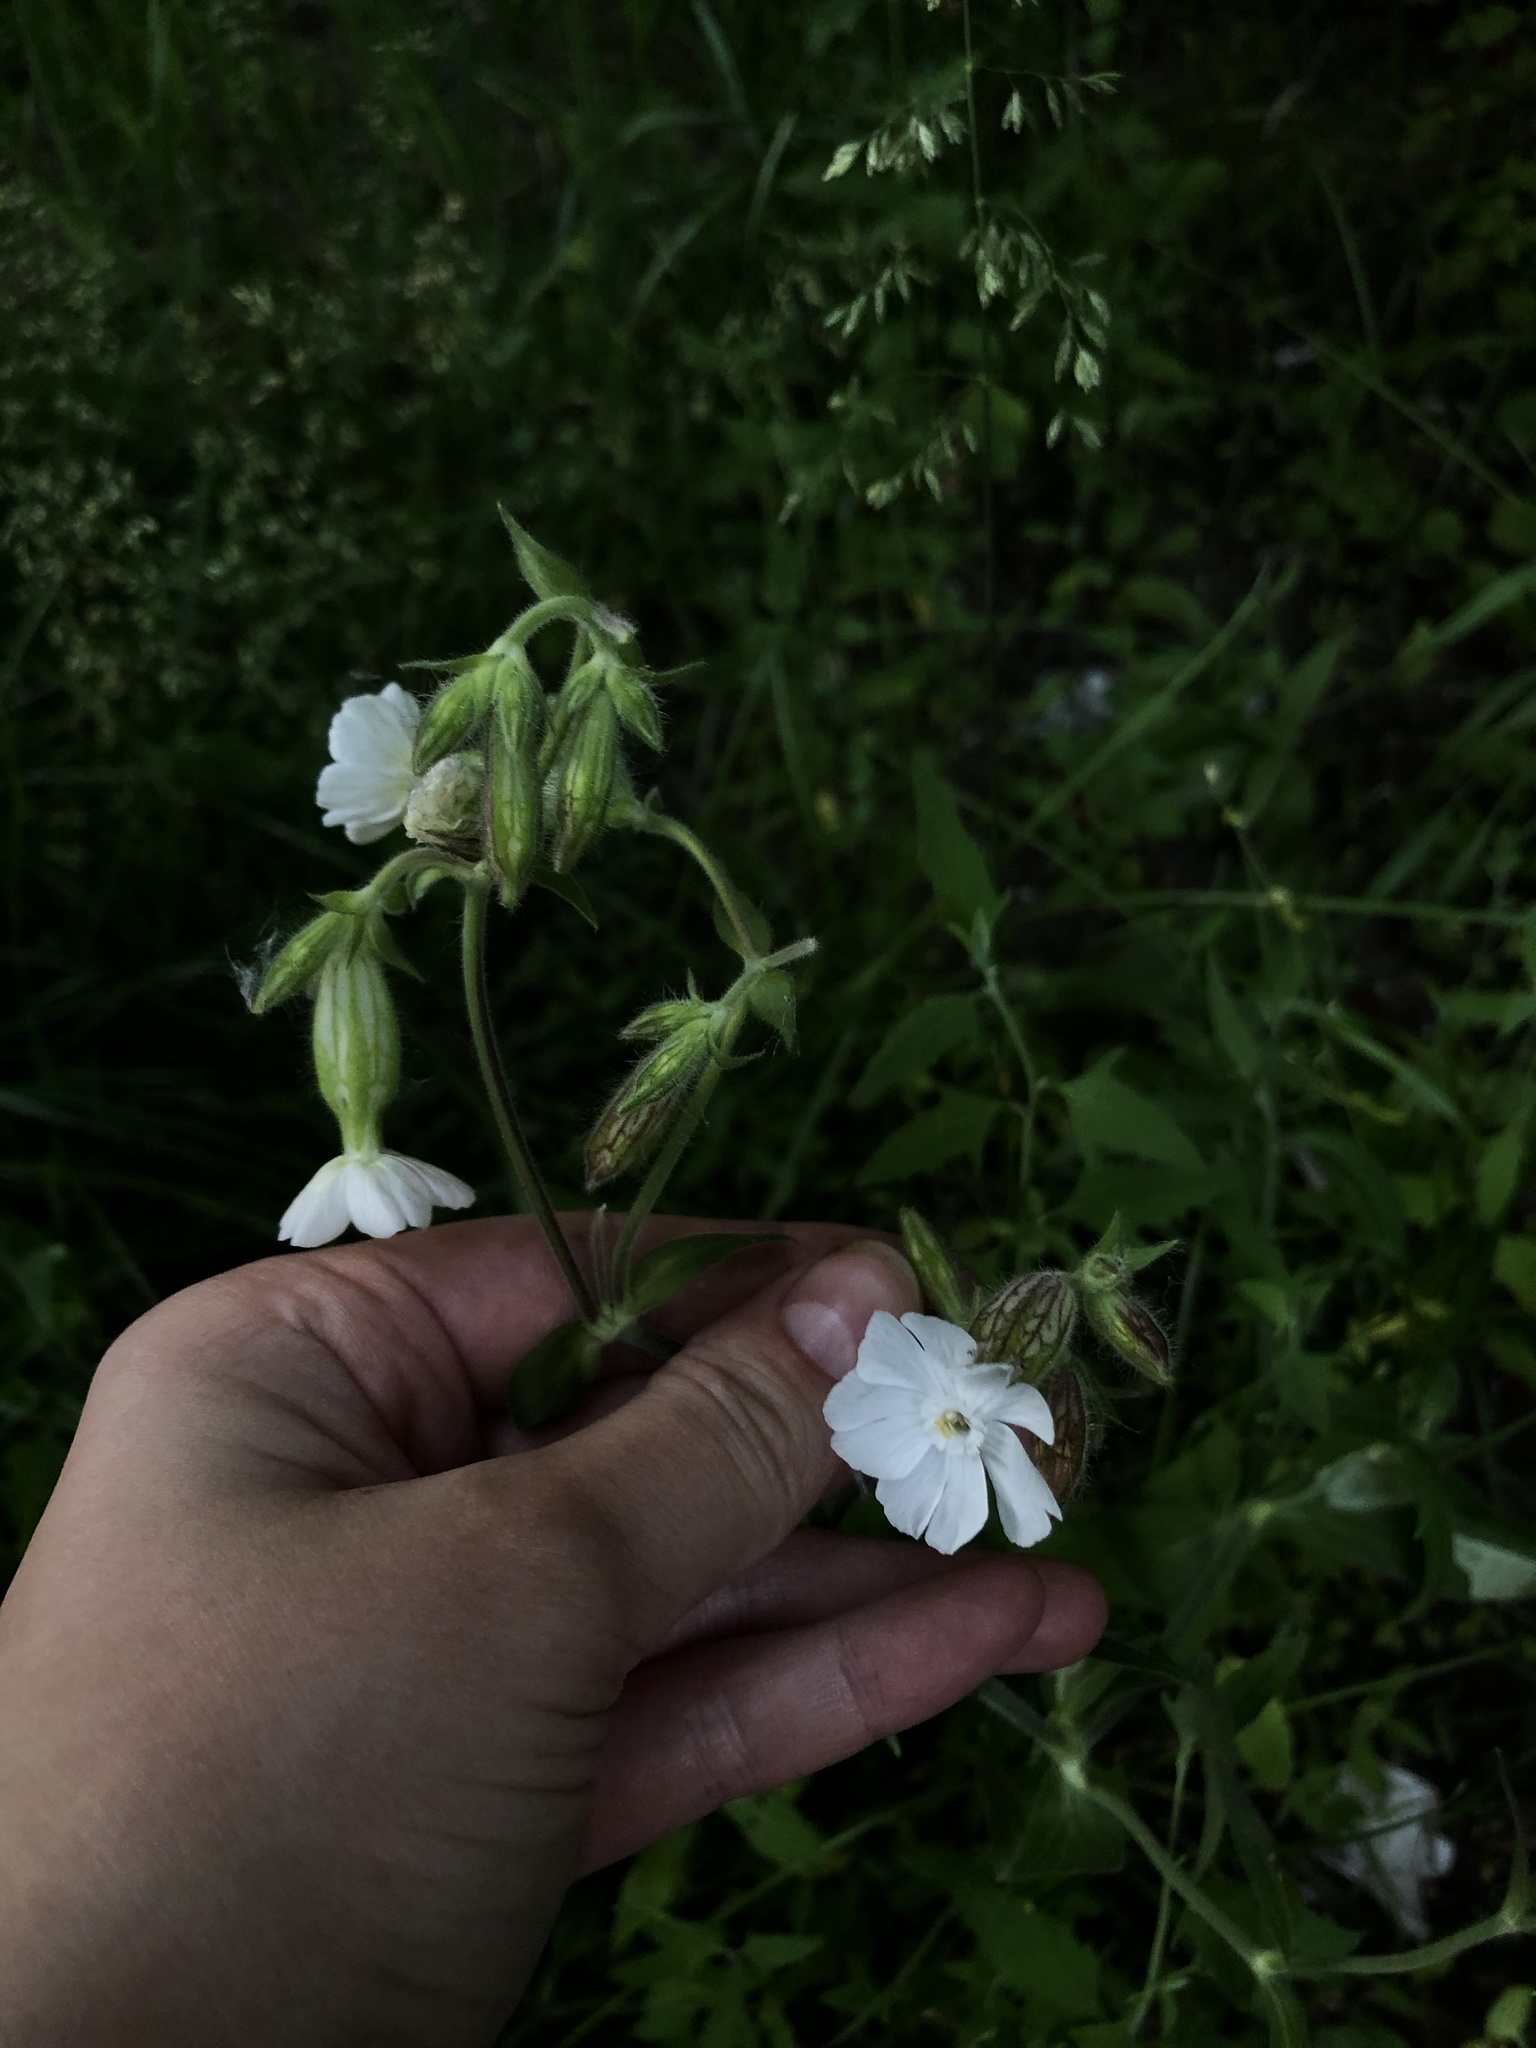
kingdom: Plantae
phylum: Tracheophyta
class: Magnoliopsida
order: Caryophyllales
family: Caryophyllaceae
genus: Silene
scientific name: Silene latifolia
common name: White campion
